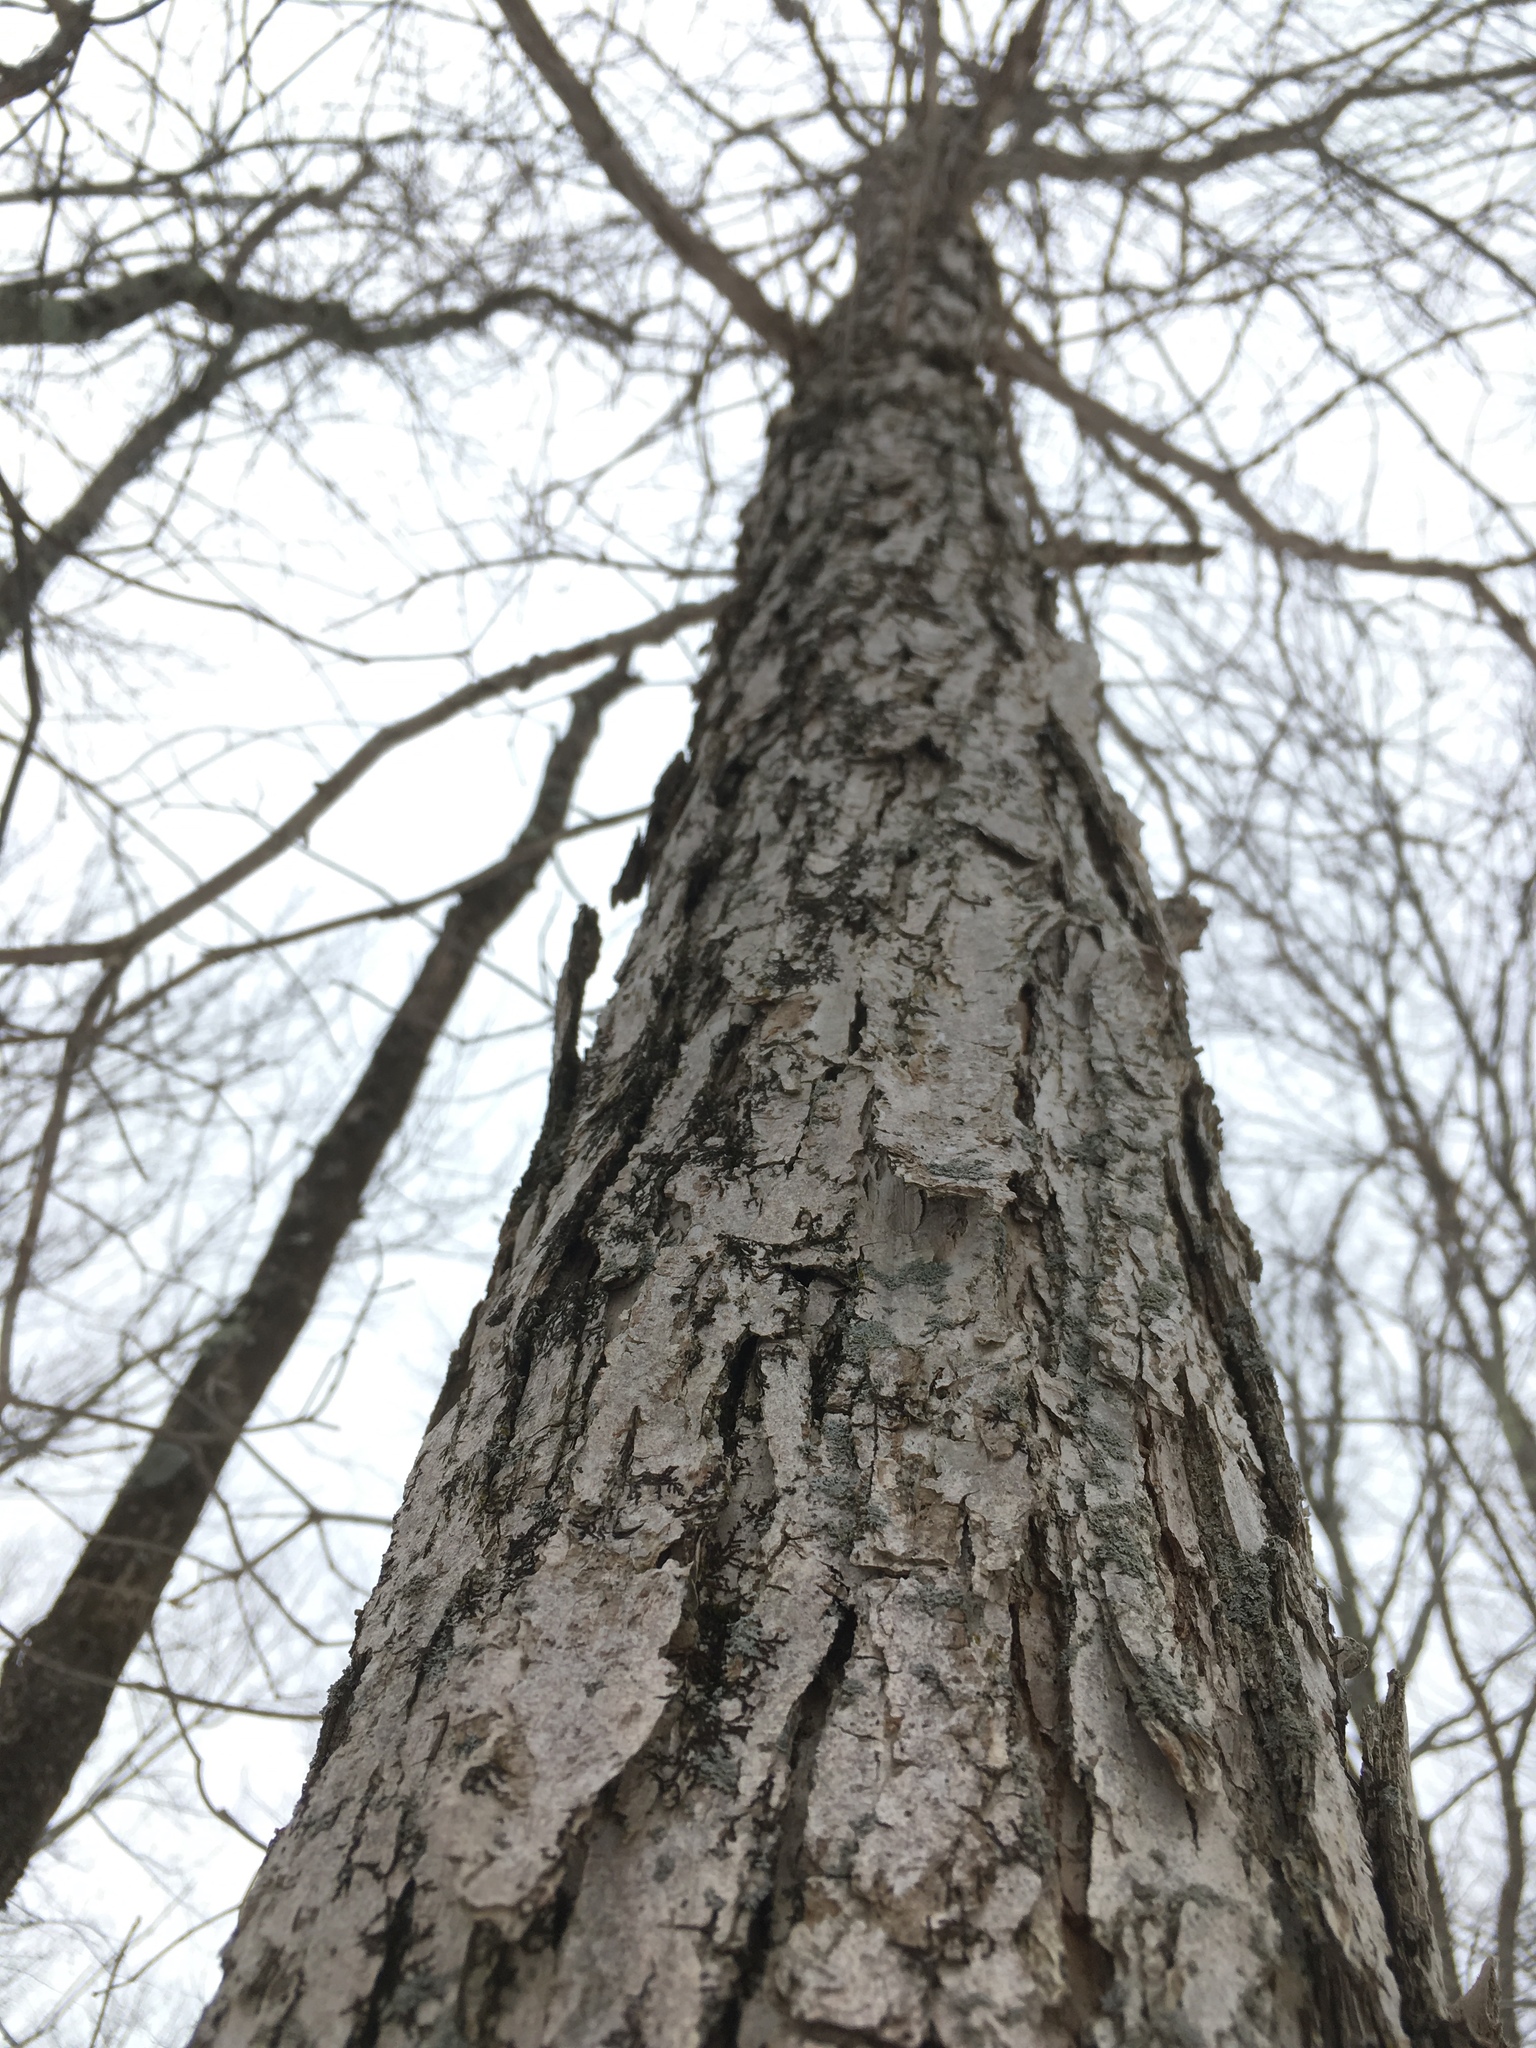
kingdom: Plantae
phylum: Tracheophyta
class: Magnoliopsida
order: Fagales
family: Fagaceae
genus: Quercus
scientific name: Quercus bicolor
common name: Swamp white oak
